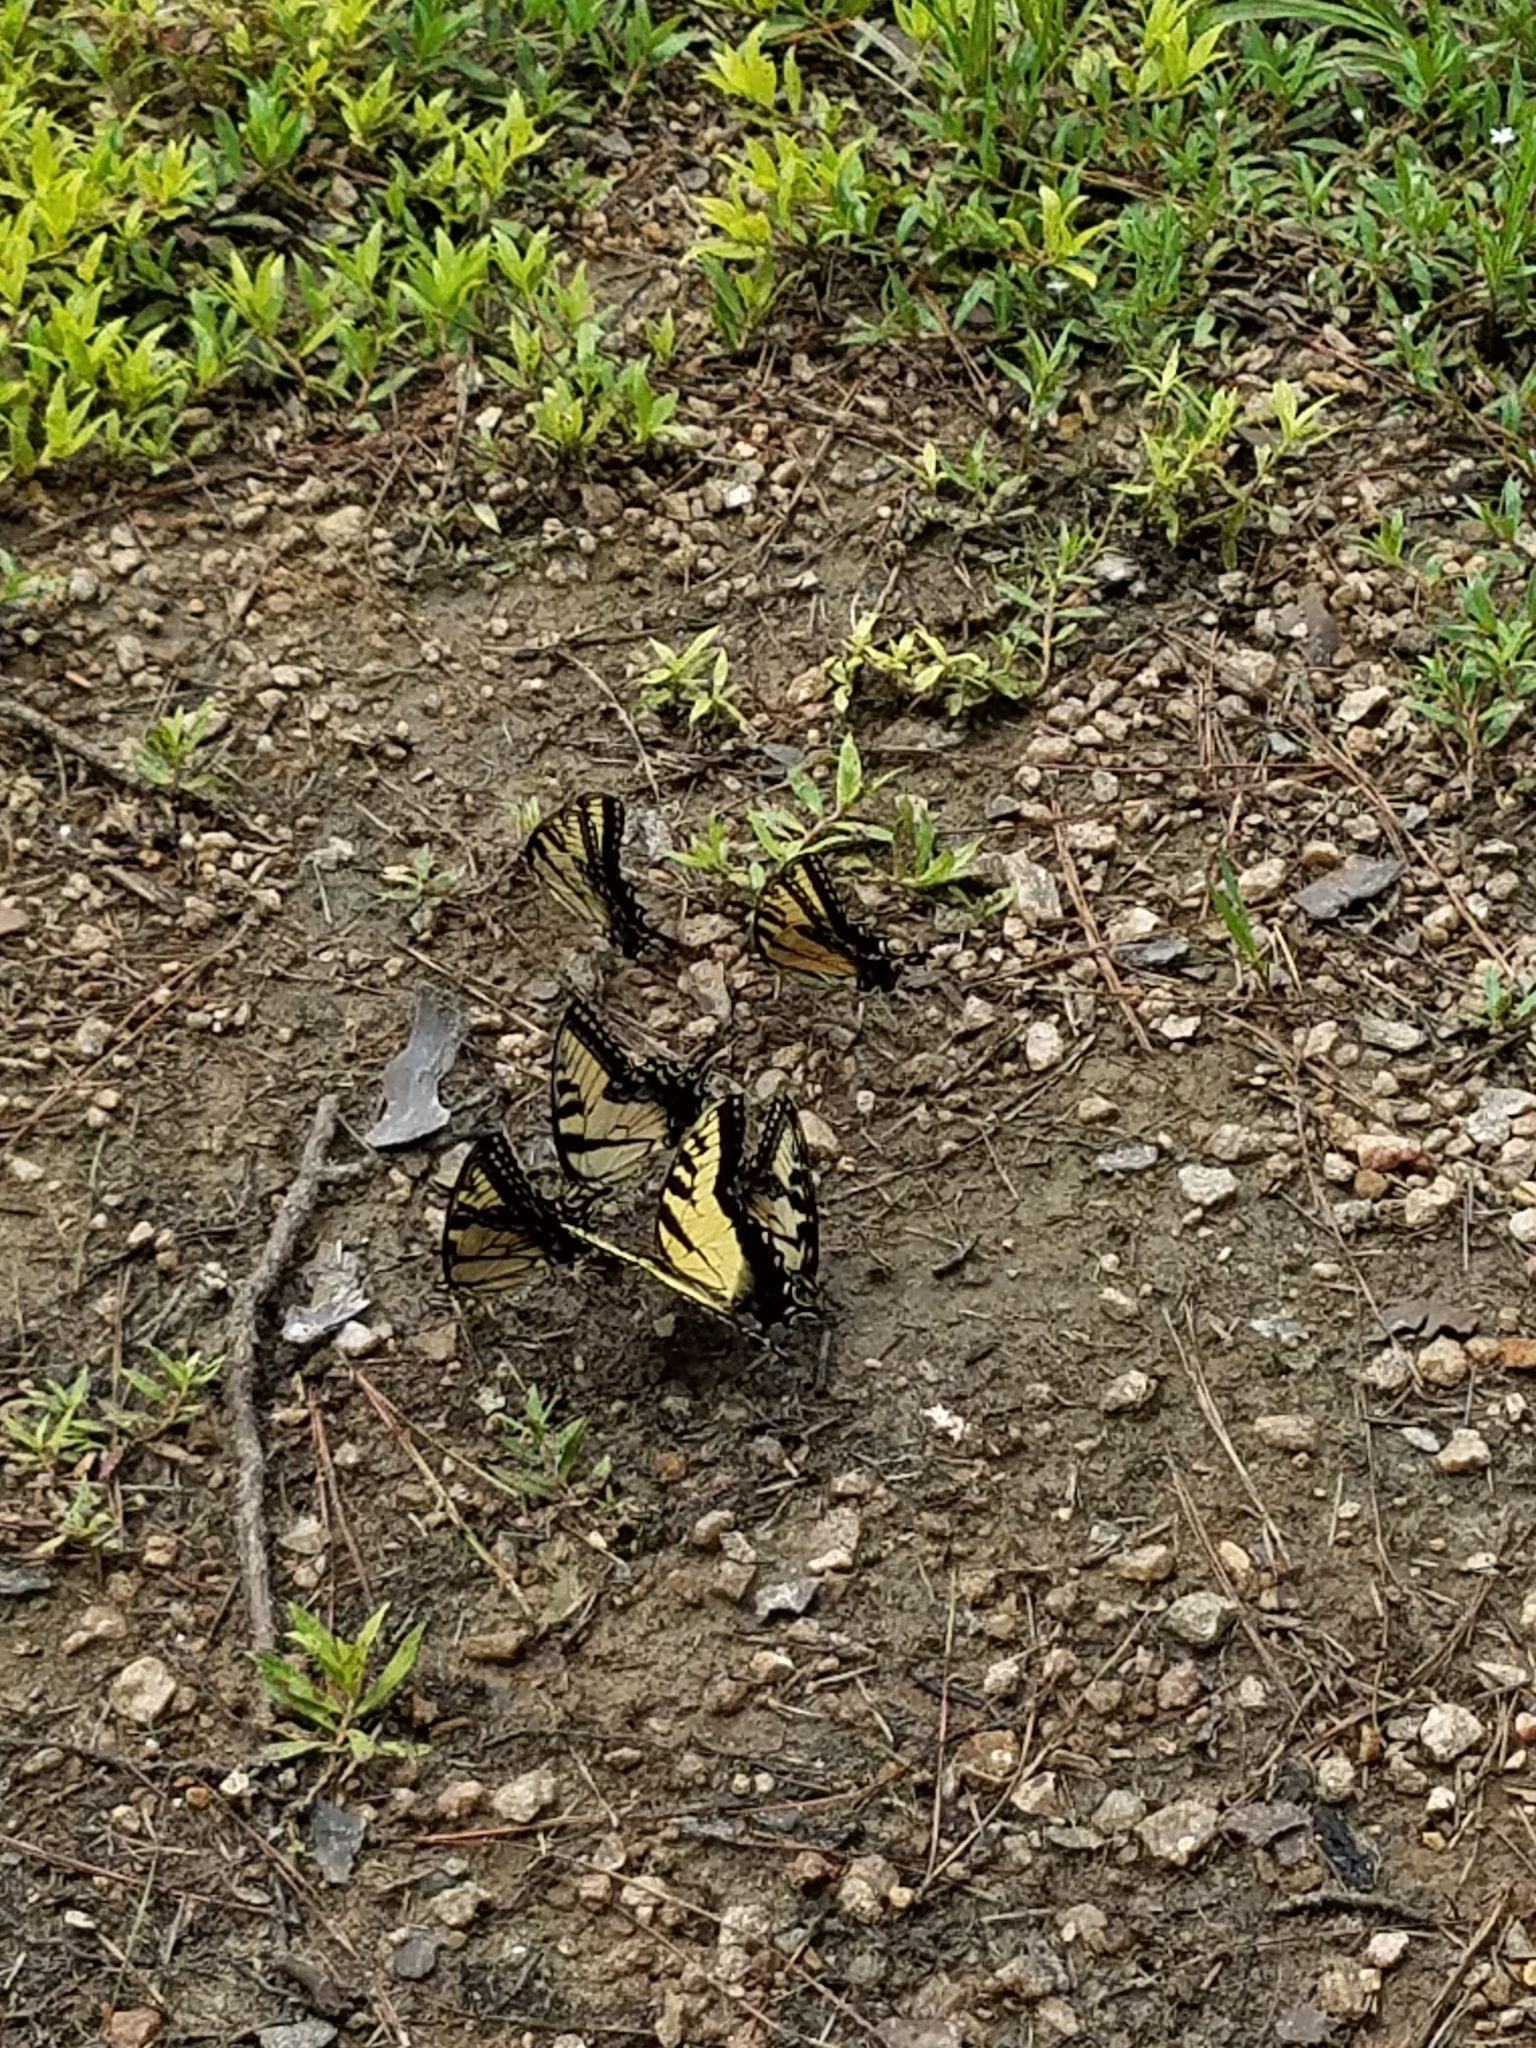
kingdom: Animalia
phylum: Arthropoda
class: Insecta
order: Lepidoptera
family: Papilionidae
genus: Papilio
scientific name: Papilio glaucus
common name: Tiger swallowtail
